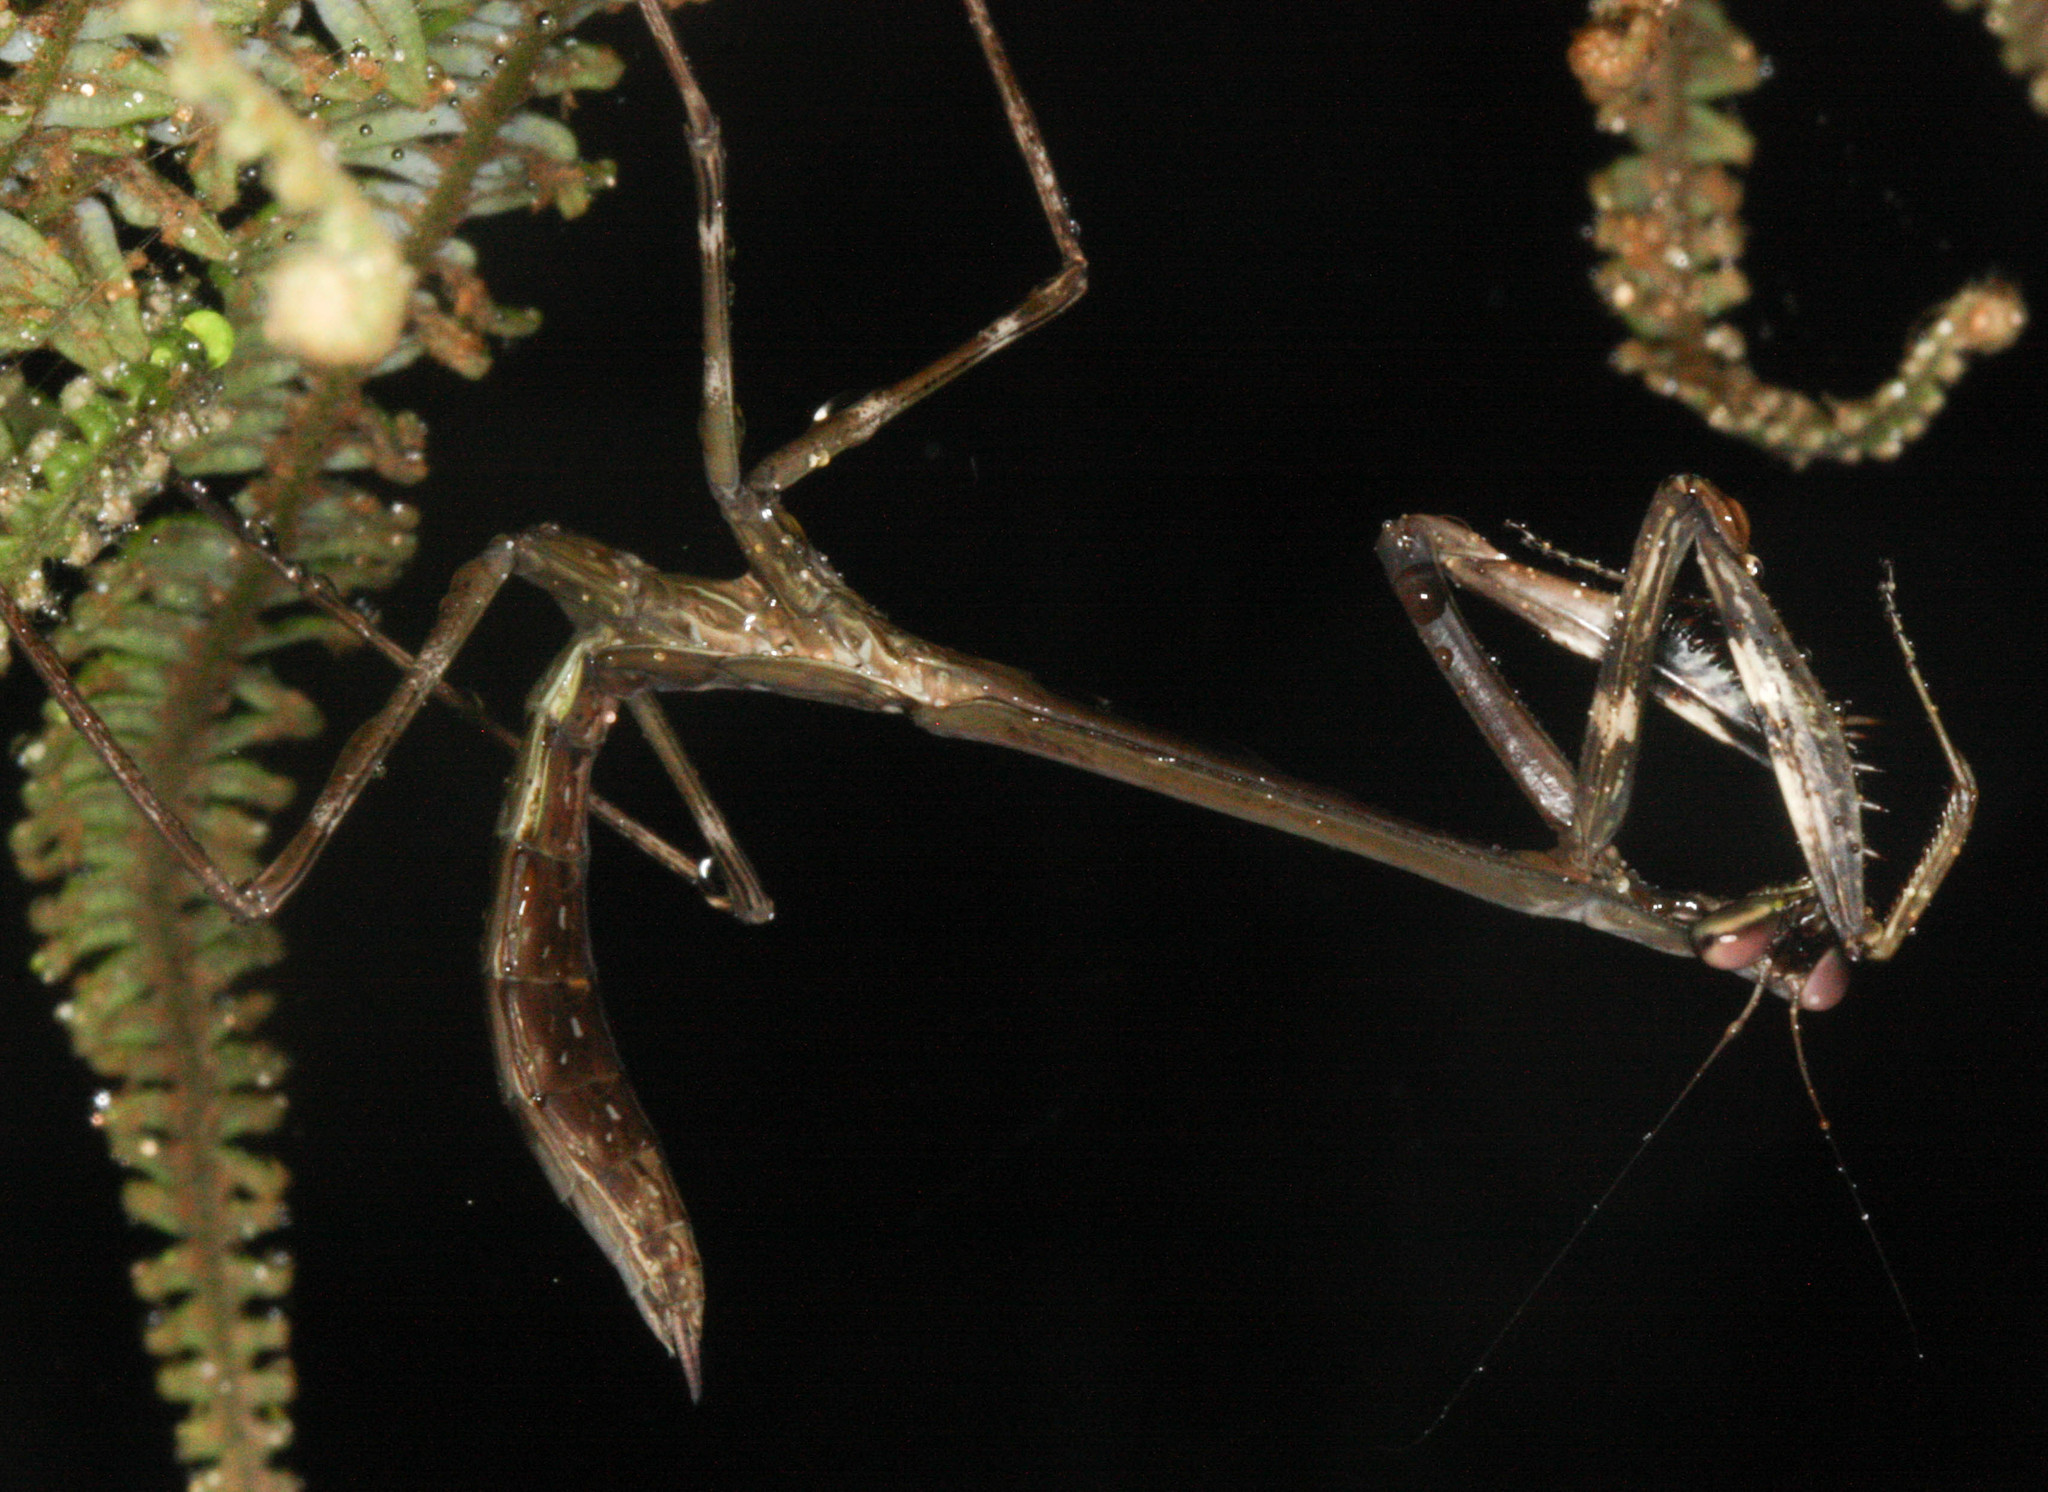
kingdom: Animalia
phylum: Arthropoda
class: Insecta
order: Mantodea
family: Mantidae
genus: Tisma
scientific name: Tisma freyi
